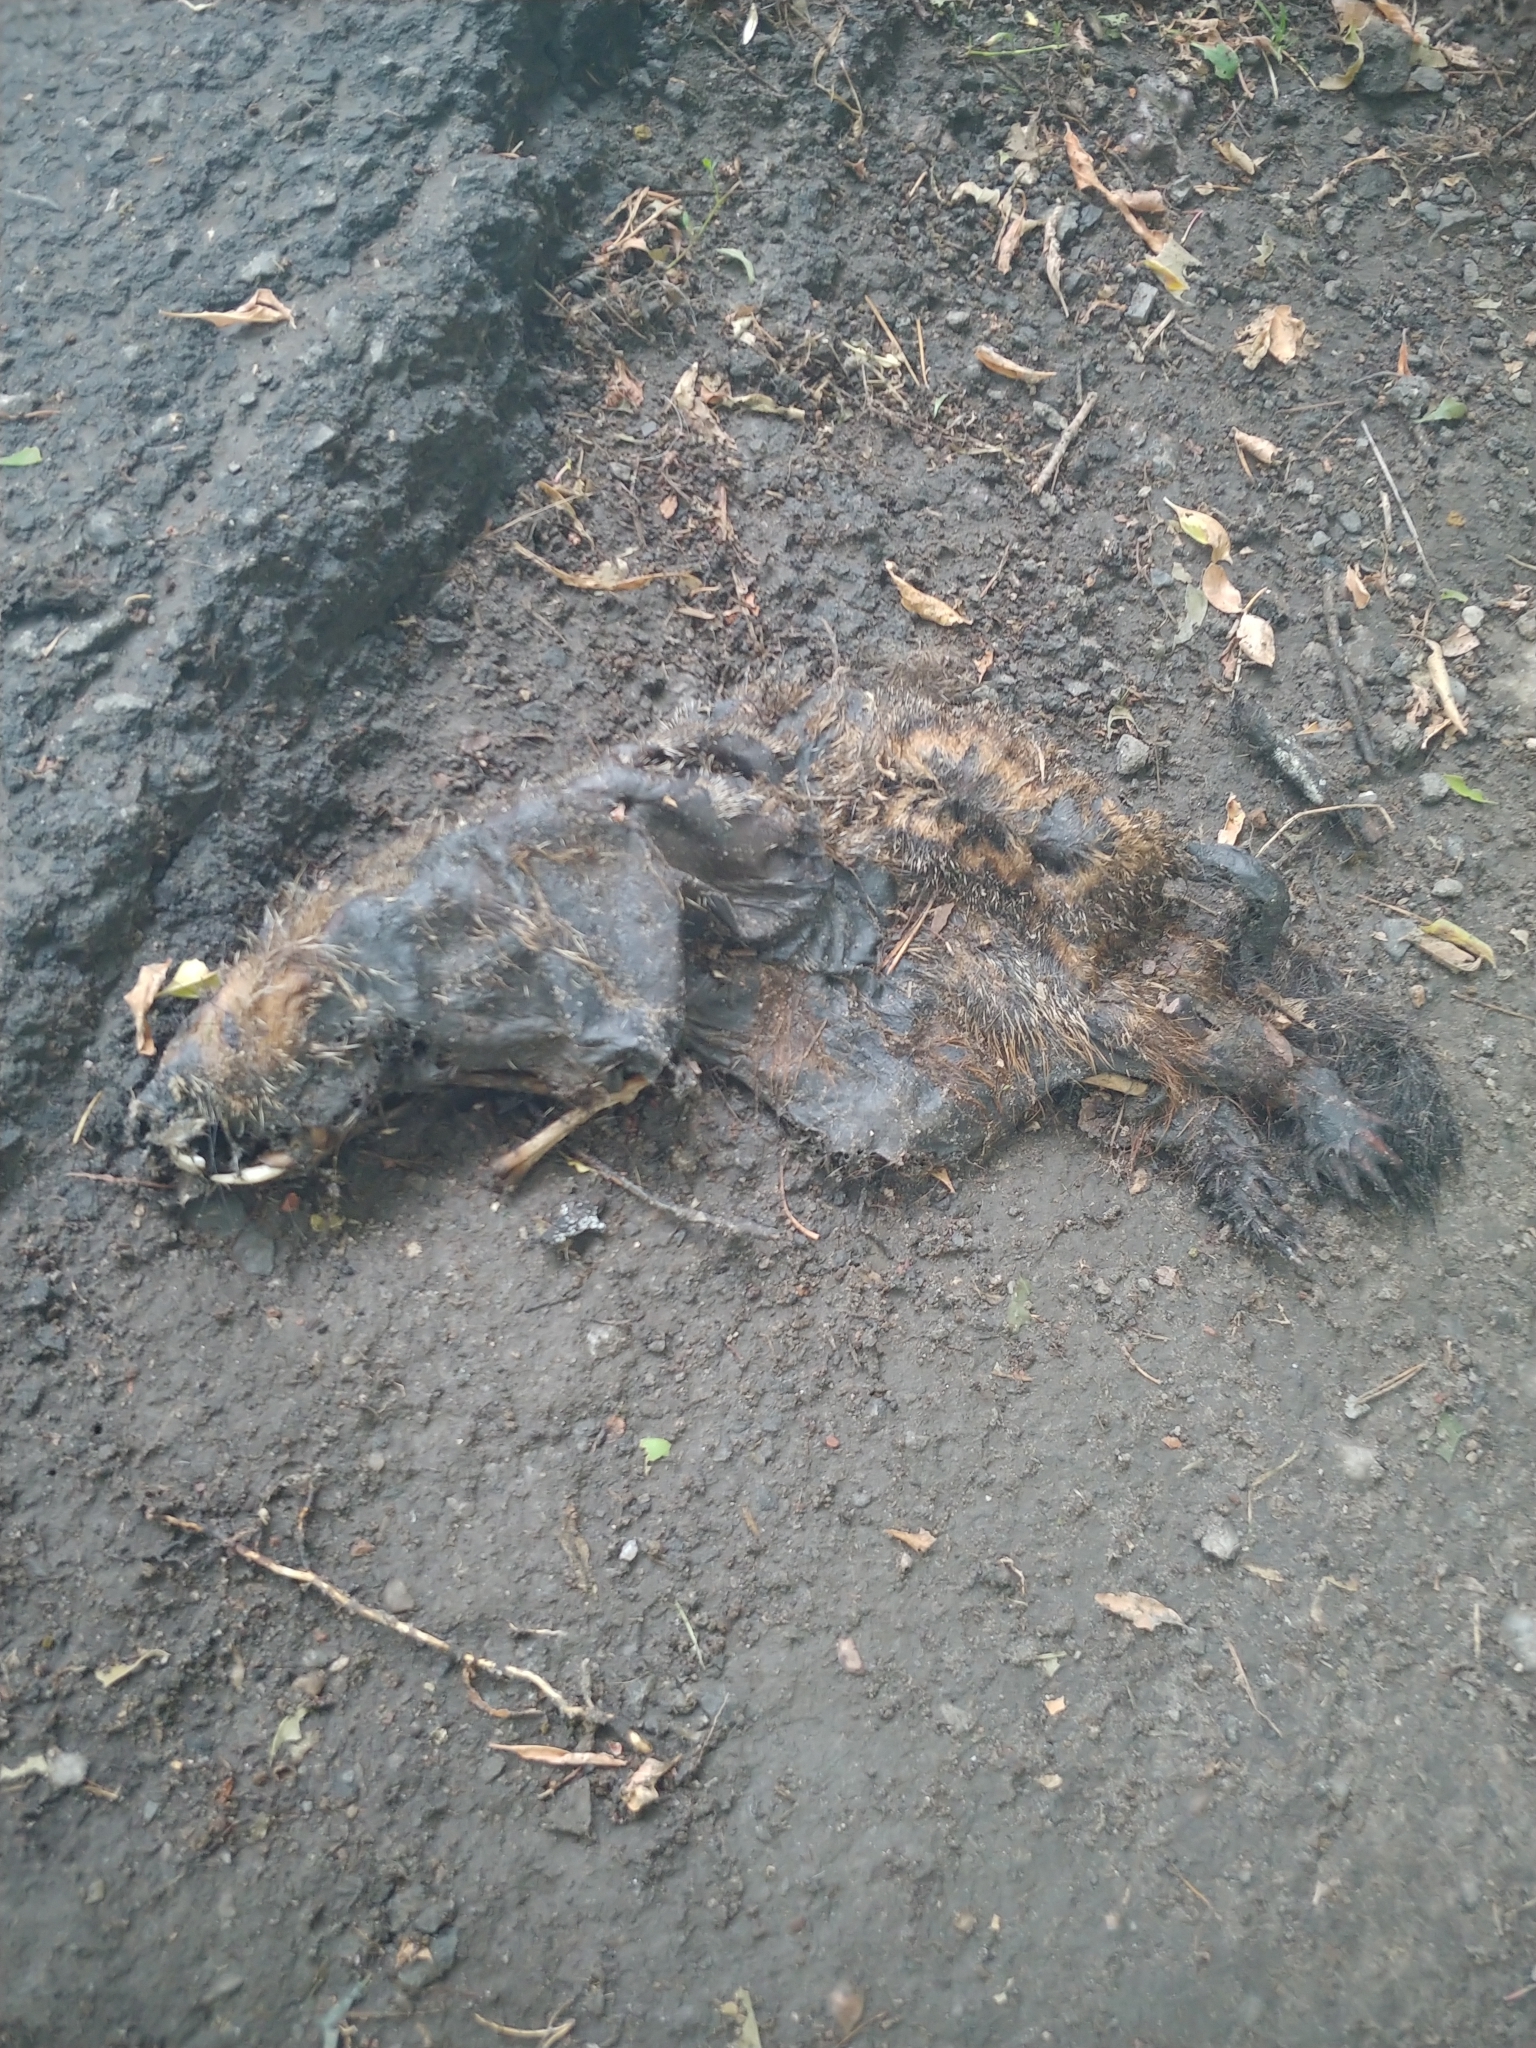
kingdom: Animalia
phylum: Chordata
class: Mammalia
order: Rodentia
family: Sciuridae
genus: Marmota
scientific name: Marmota monax
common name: Groundhog
